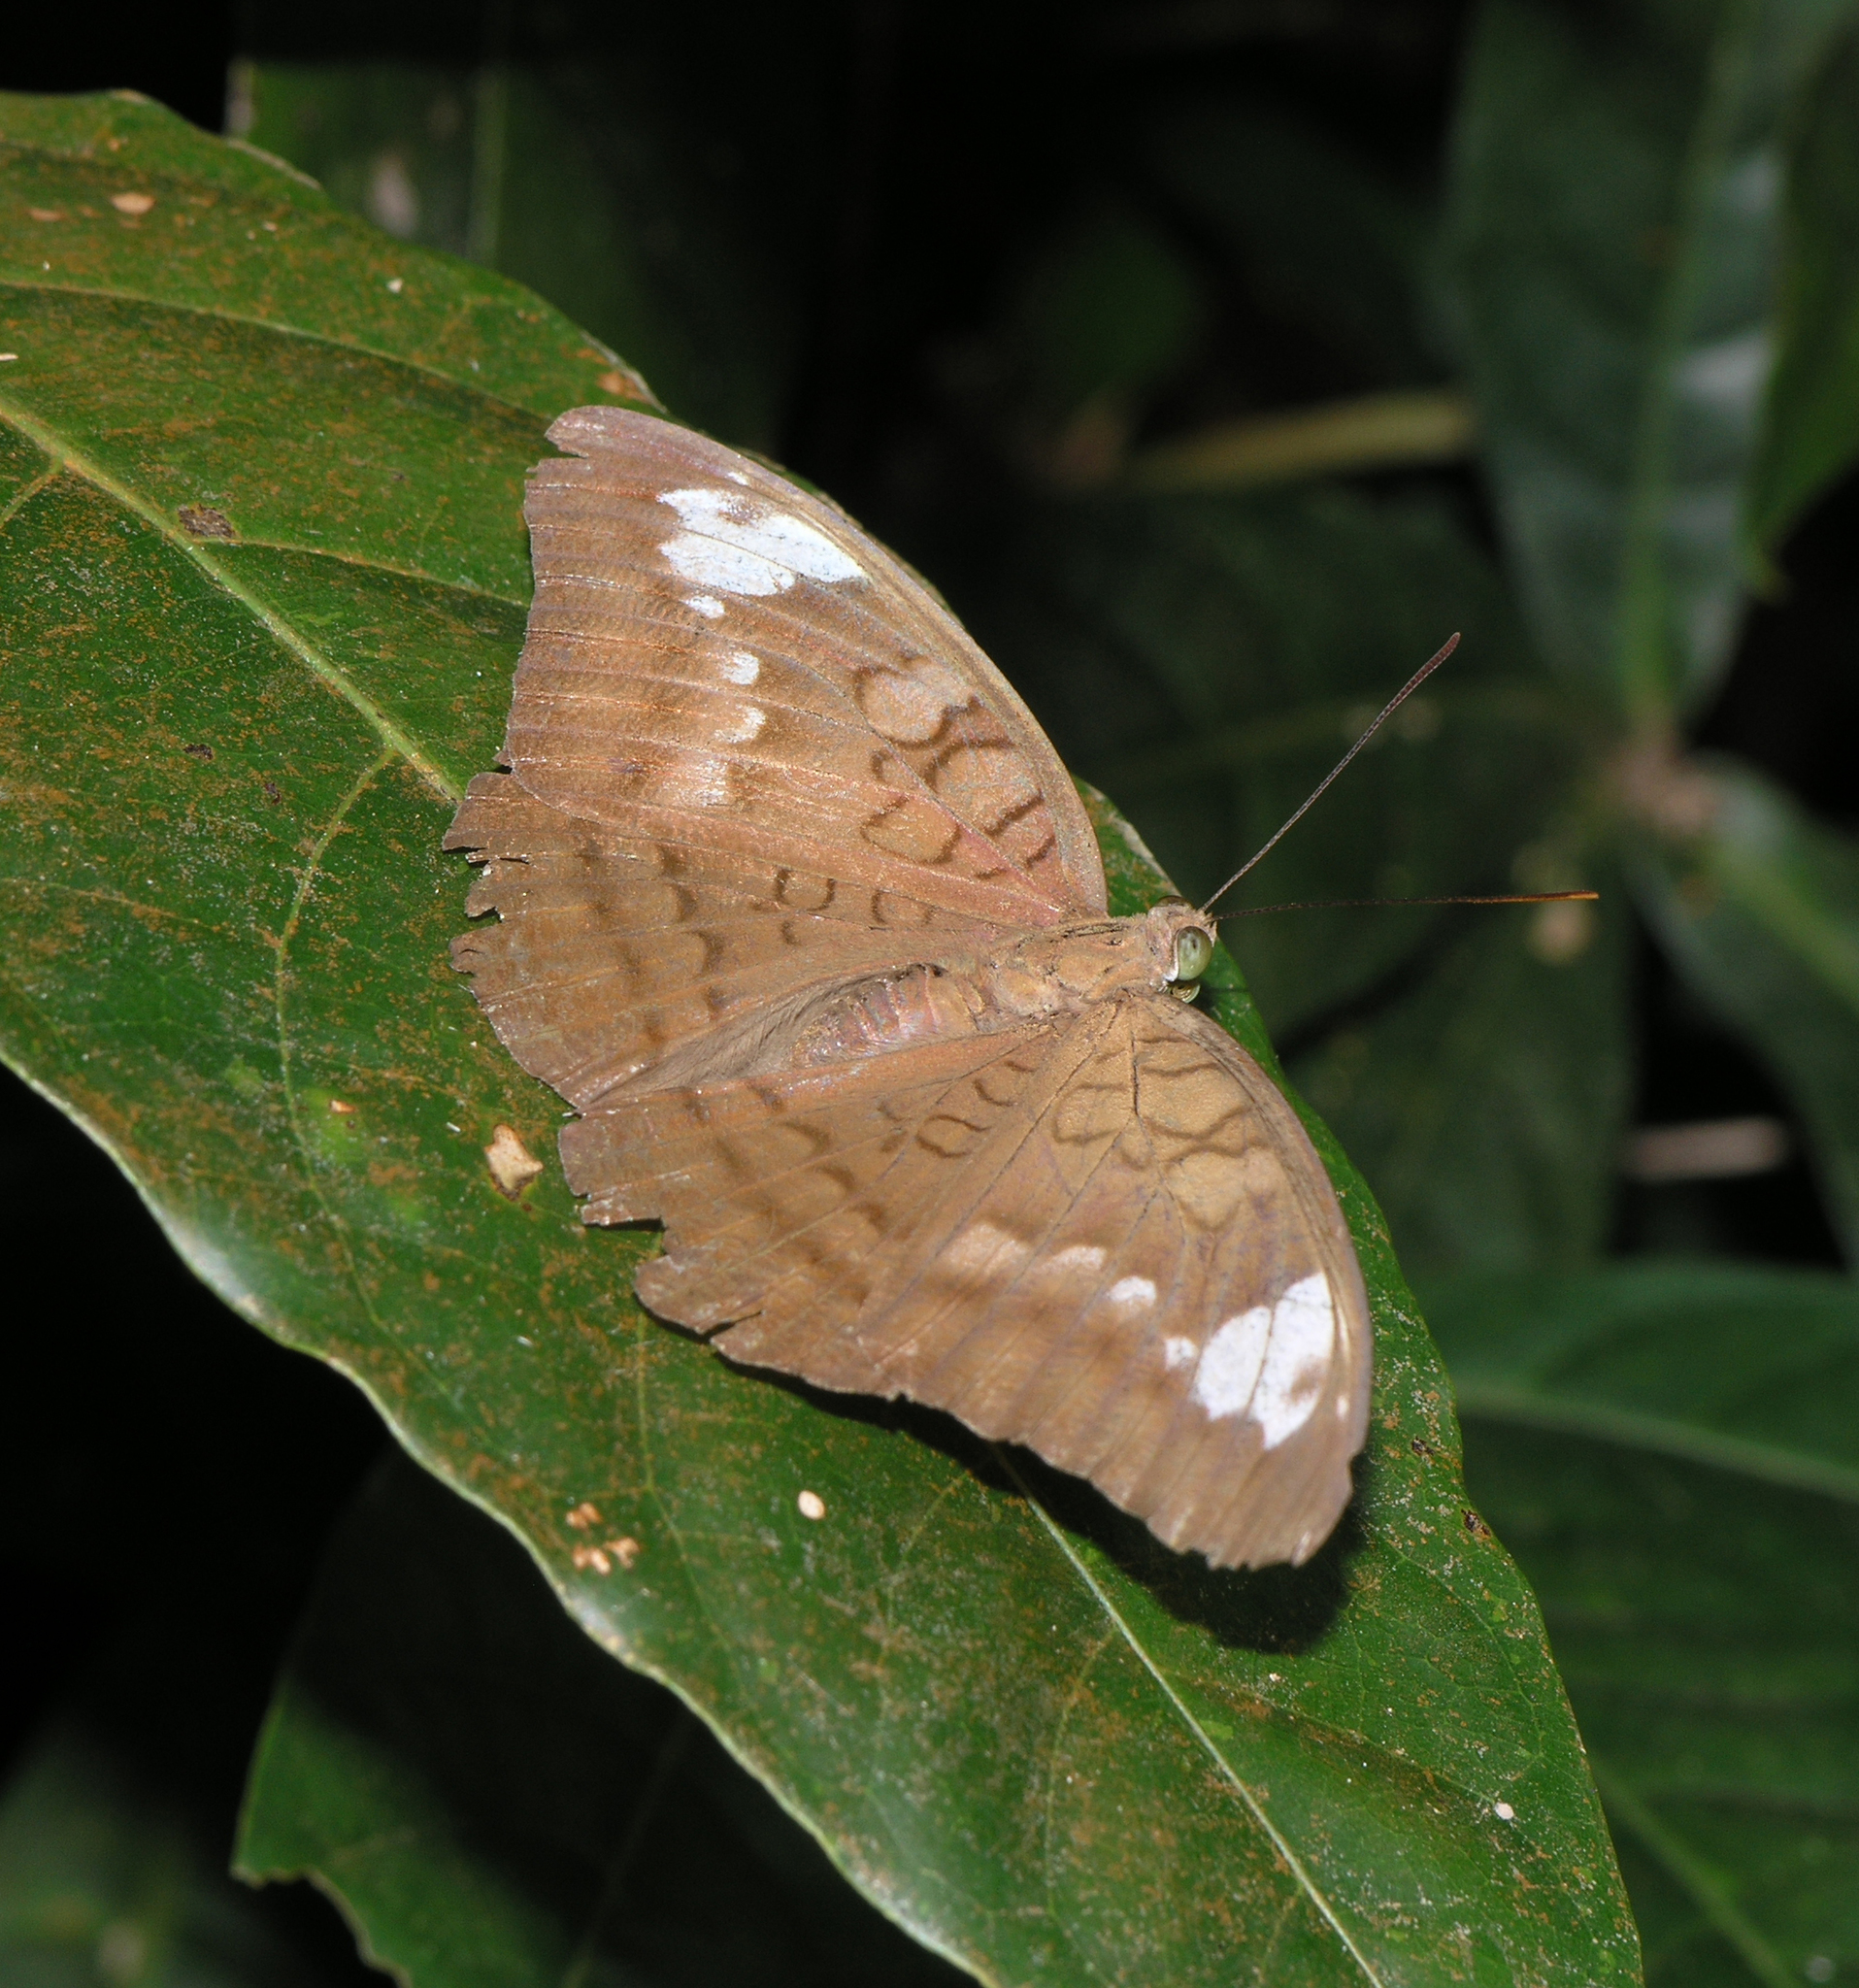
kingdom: Animalia
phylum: Arthropoda
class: Insecta
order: Lepidoptera
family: Nymphalidae
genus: Tanaecia
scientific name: Tanaecia julii
